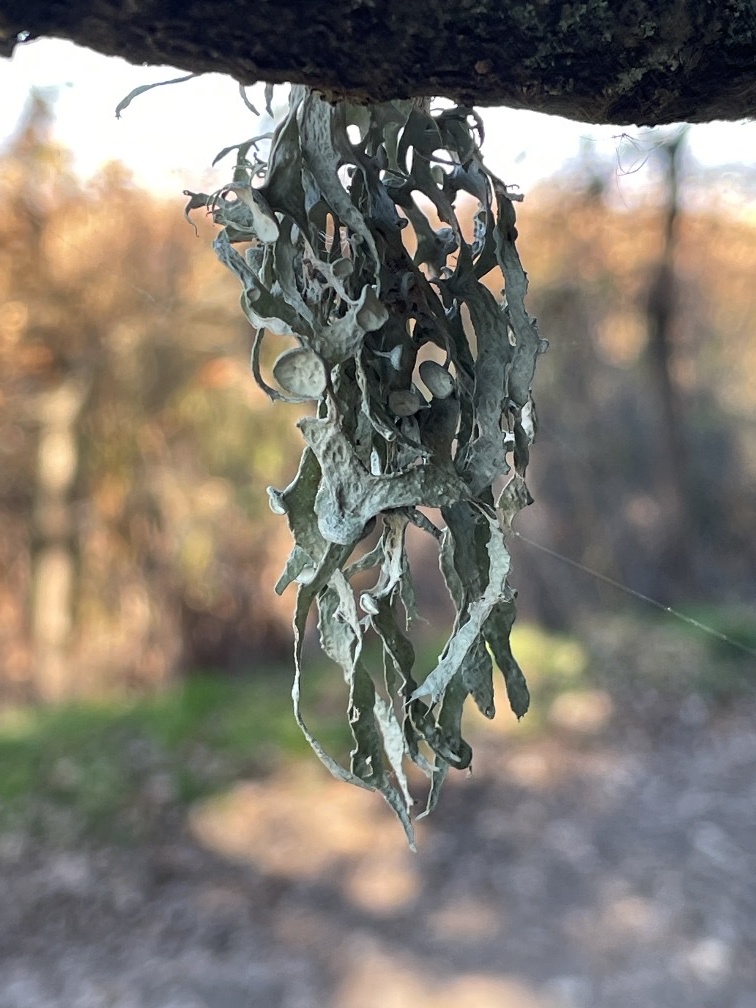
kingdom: Fungi
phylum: Ascomycota
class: Lecanoromycetes
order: Lecanorales
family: Ramalinaceae
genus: Ramalina
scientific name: Ramalina leptocarpha
